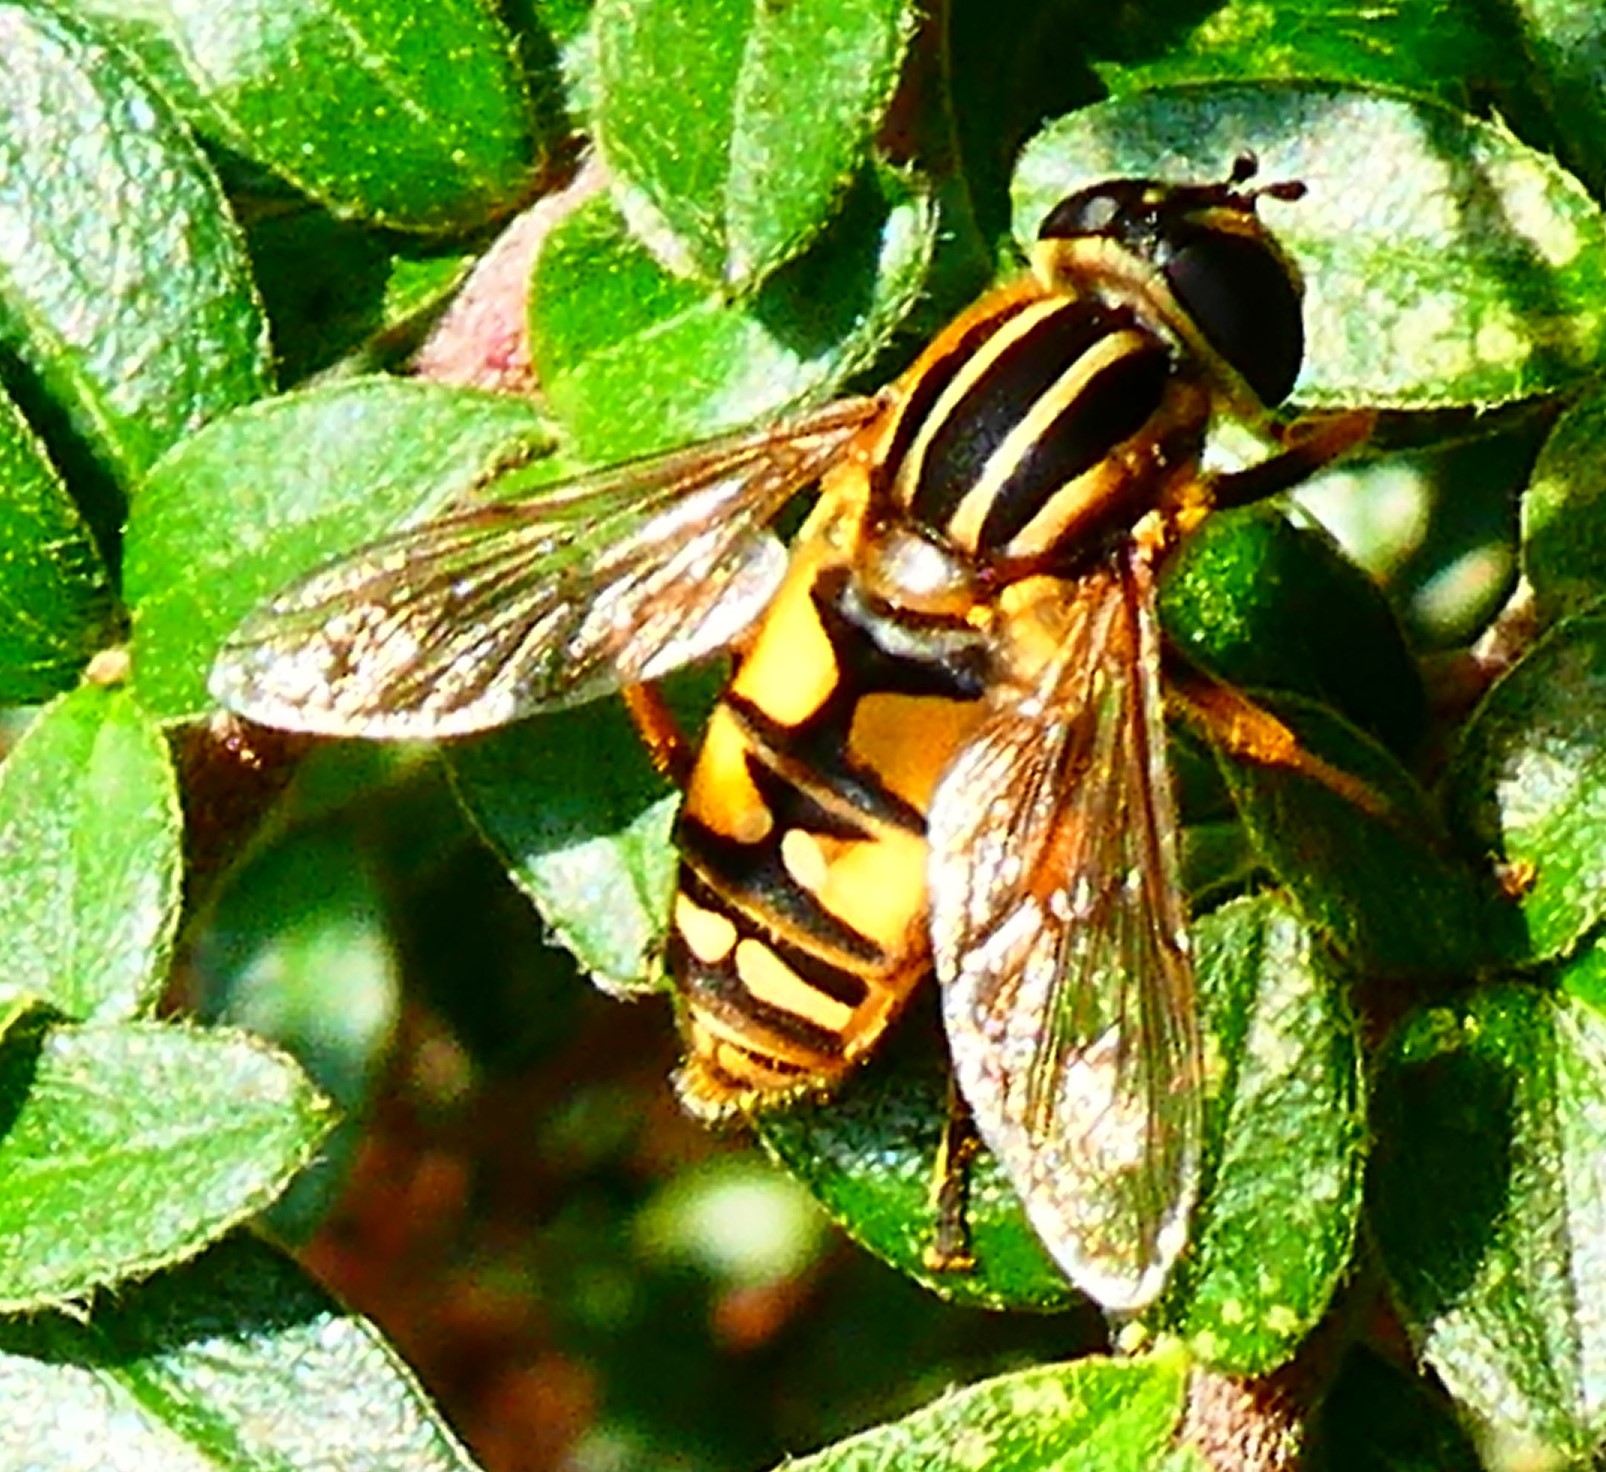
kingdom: Animalia
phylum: Arthropoda
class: Insecta
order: Diptera
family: Syrphidae
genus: Helophilus
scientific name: Helophilus pendulus
